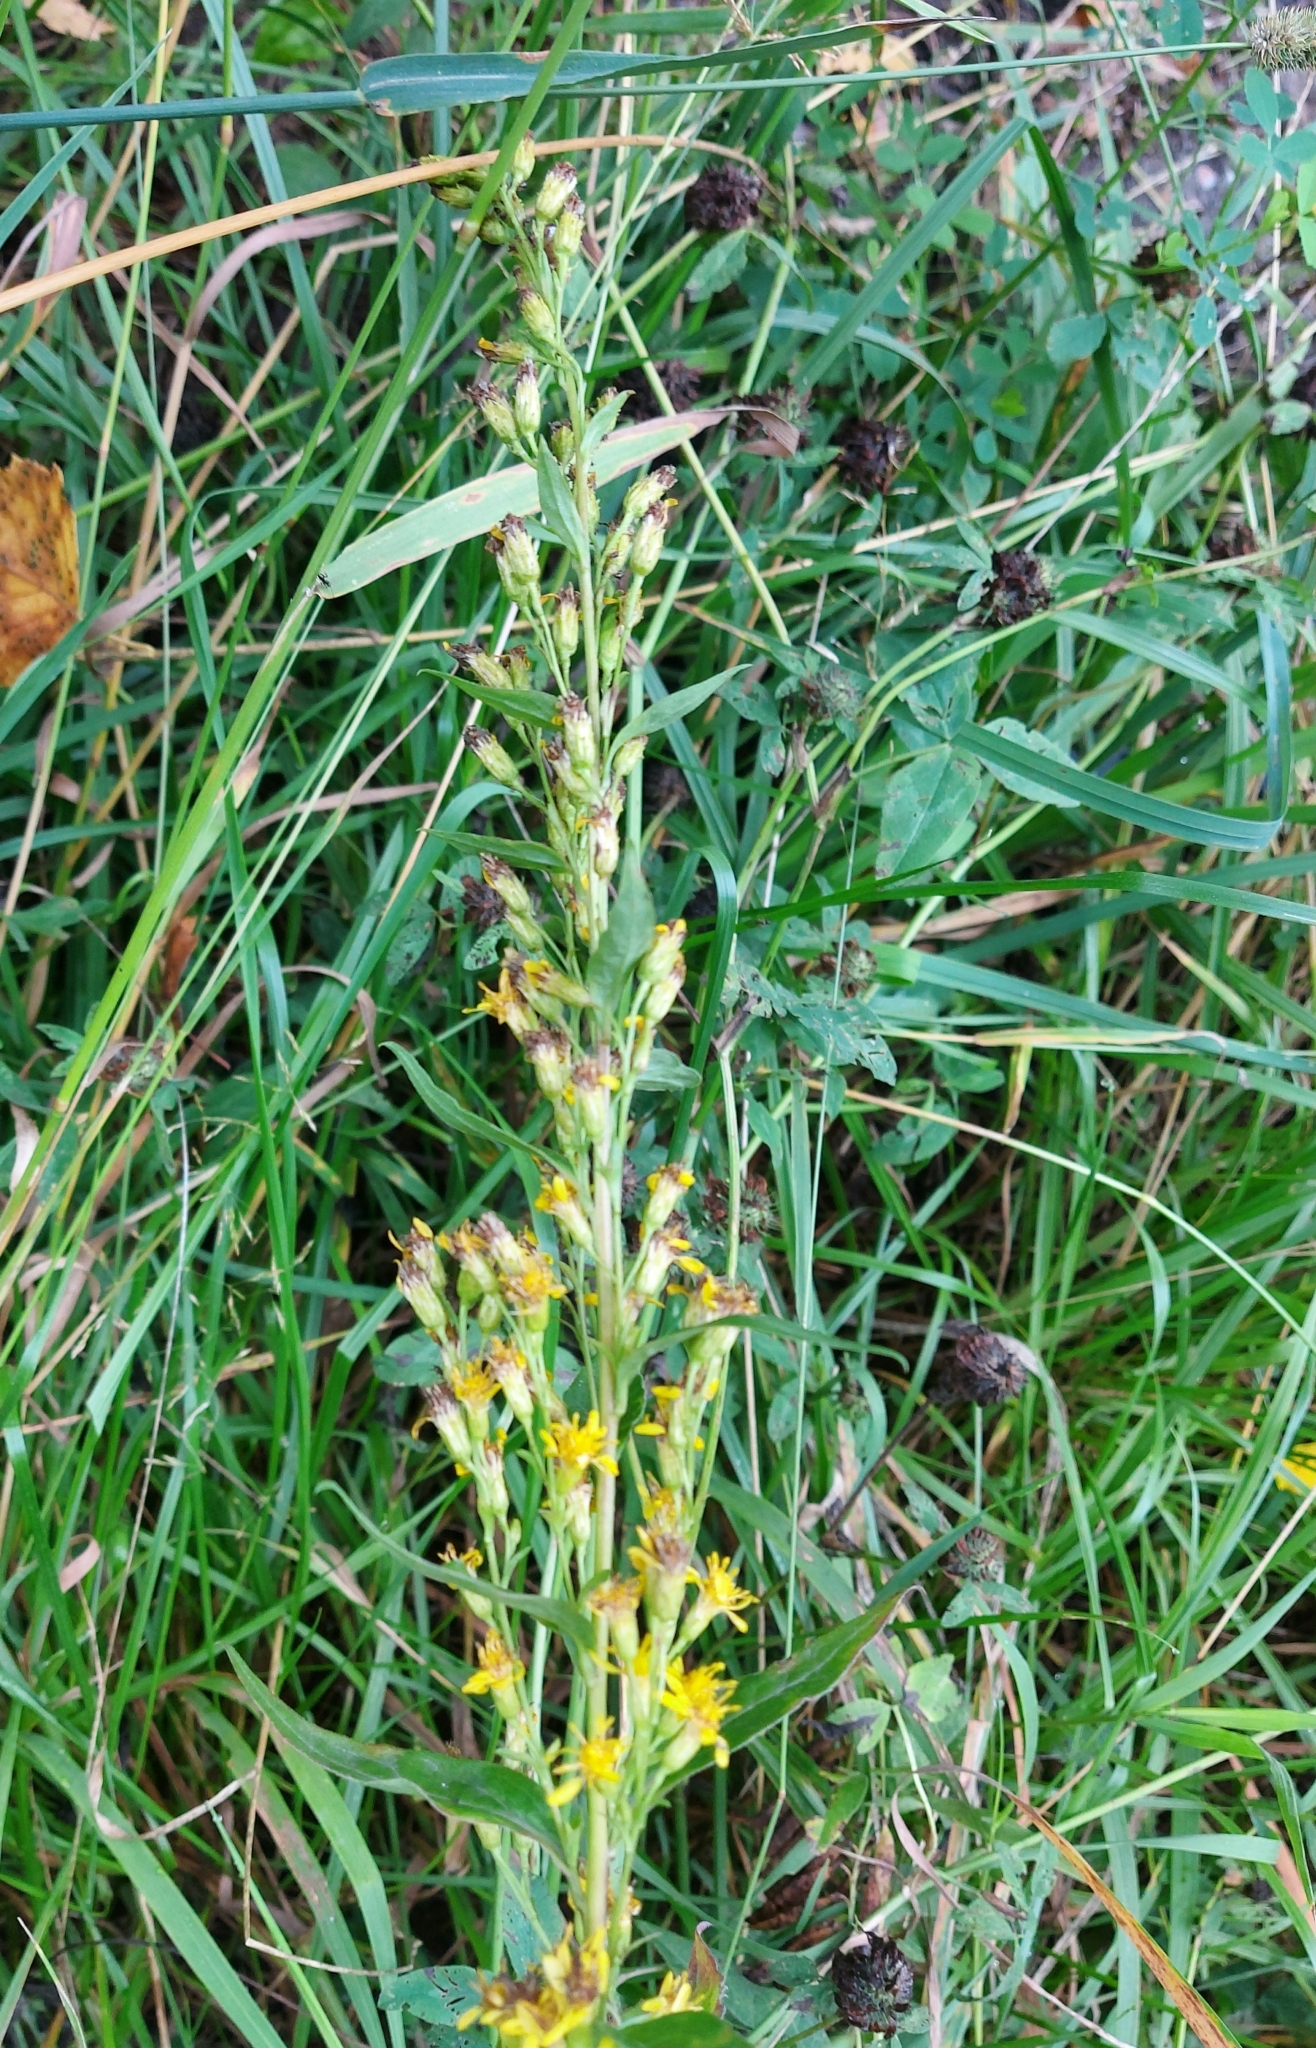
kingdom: Plantae
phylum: Tracheophyta
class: Magnoliopsida
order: Asterales
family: Asteraceae
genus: Solidago
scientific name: Solidago virgaurea
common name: Goldenrod
